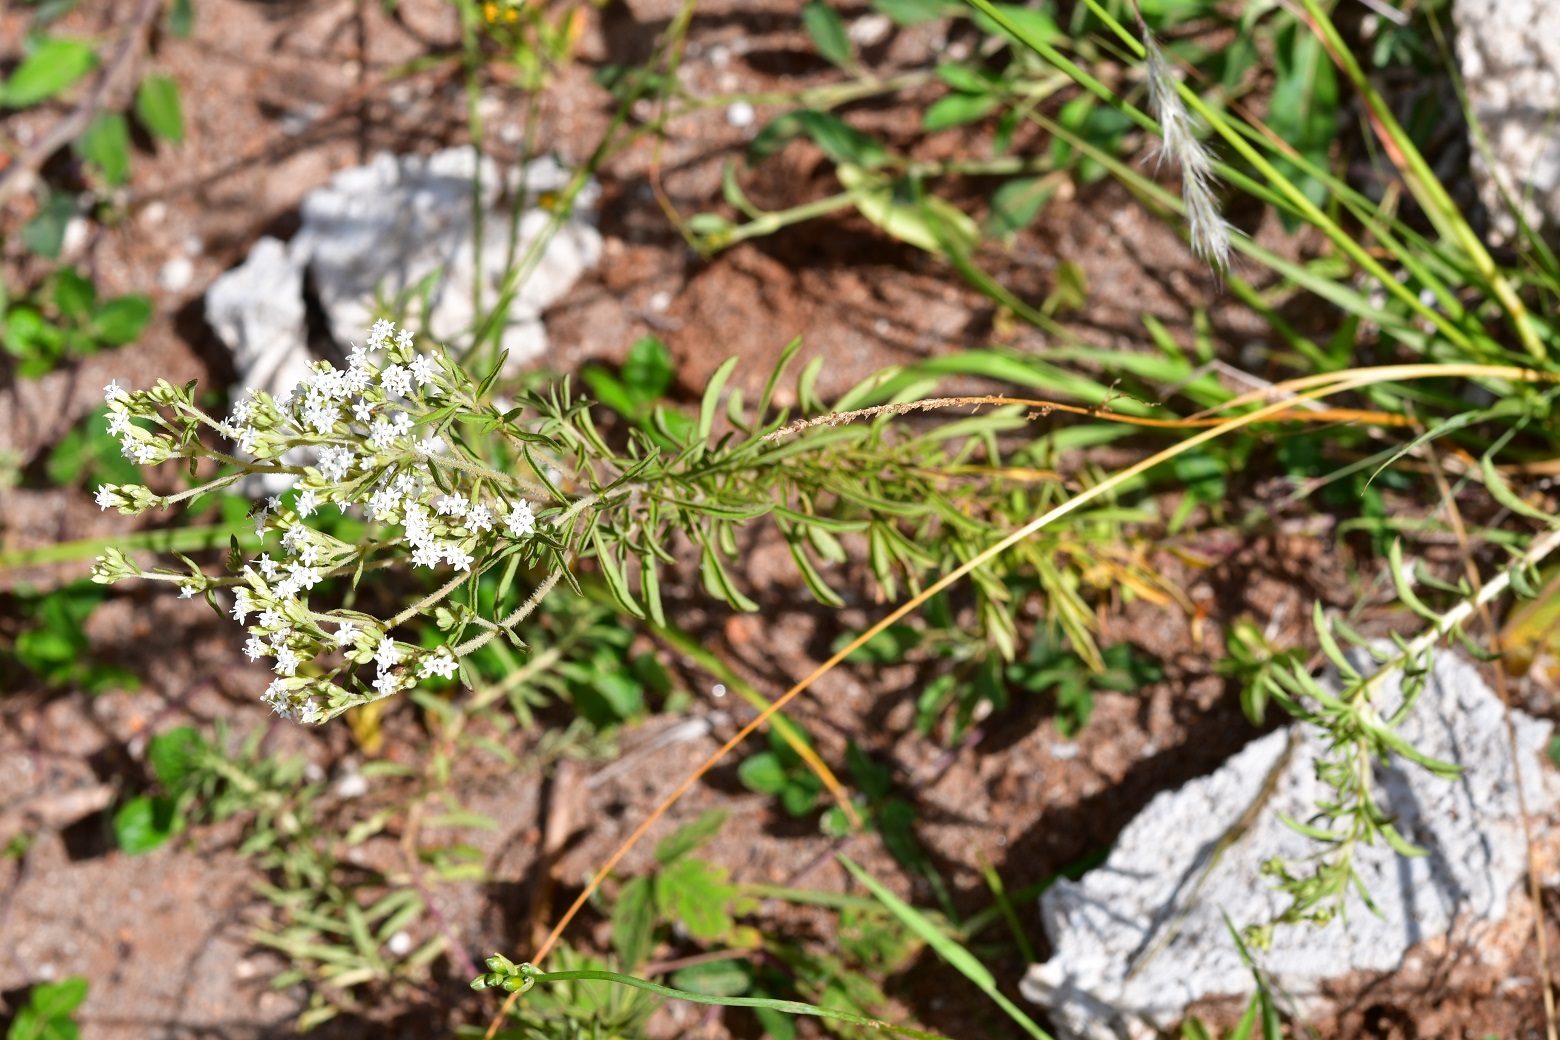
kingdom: Plantae
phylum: Tracheophyta
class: Magnoliopsida
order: Asterales
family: Asteraceae
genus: Stevia
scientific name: Stevia serrata
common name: Sawtooth candyleaf
